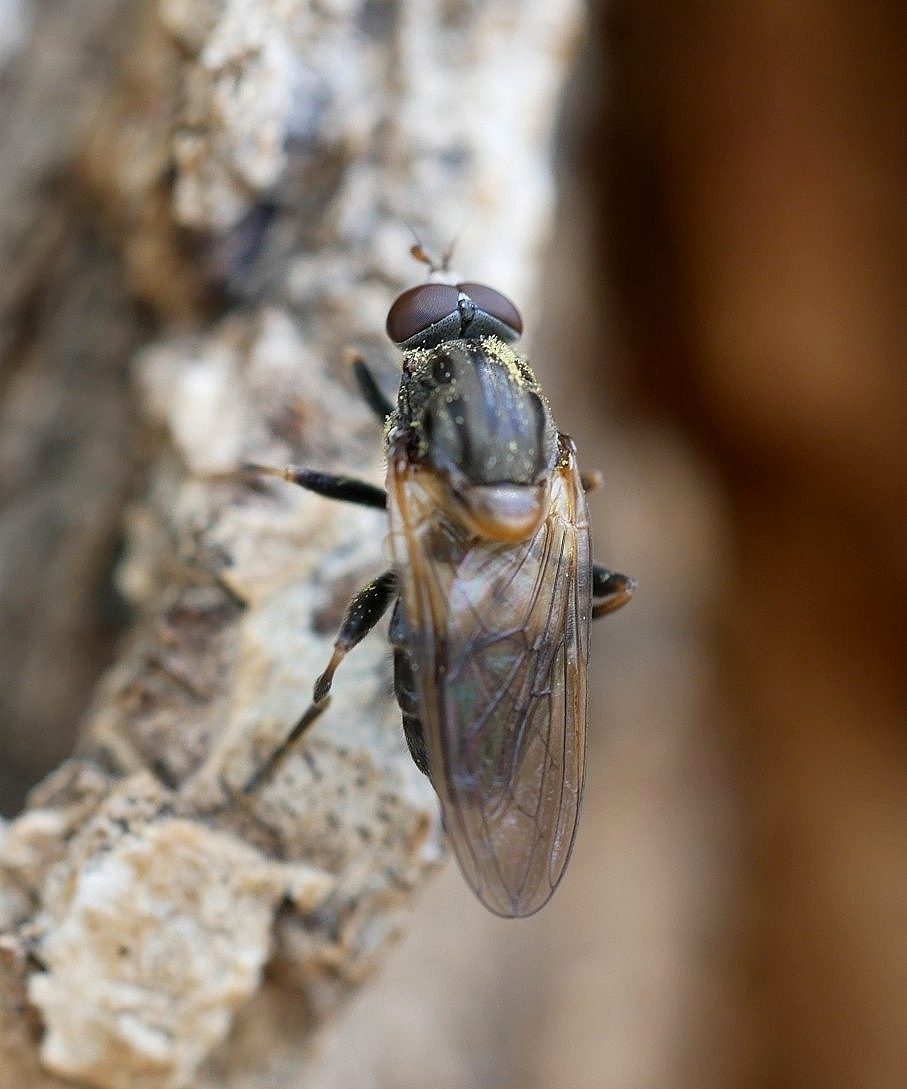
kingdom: Animalia
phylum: Arthropoda
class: Insecta
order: Diptera
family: Syrphidae
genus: Brachyopa
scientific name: Brachyopa vacua
